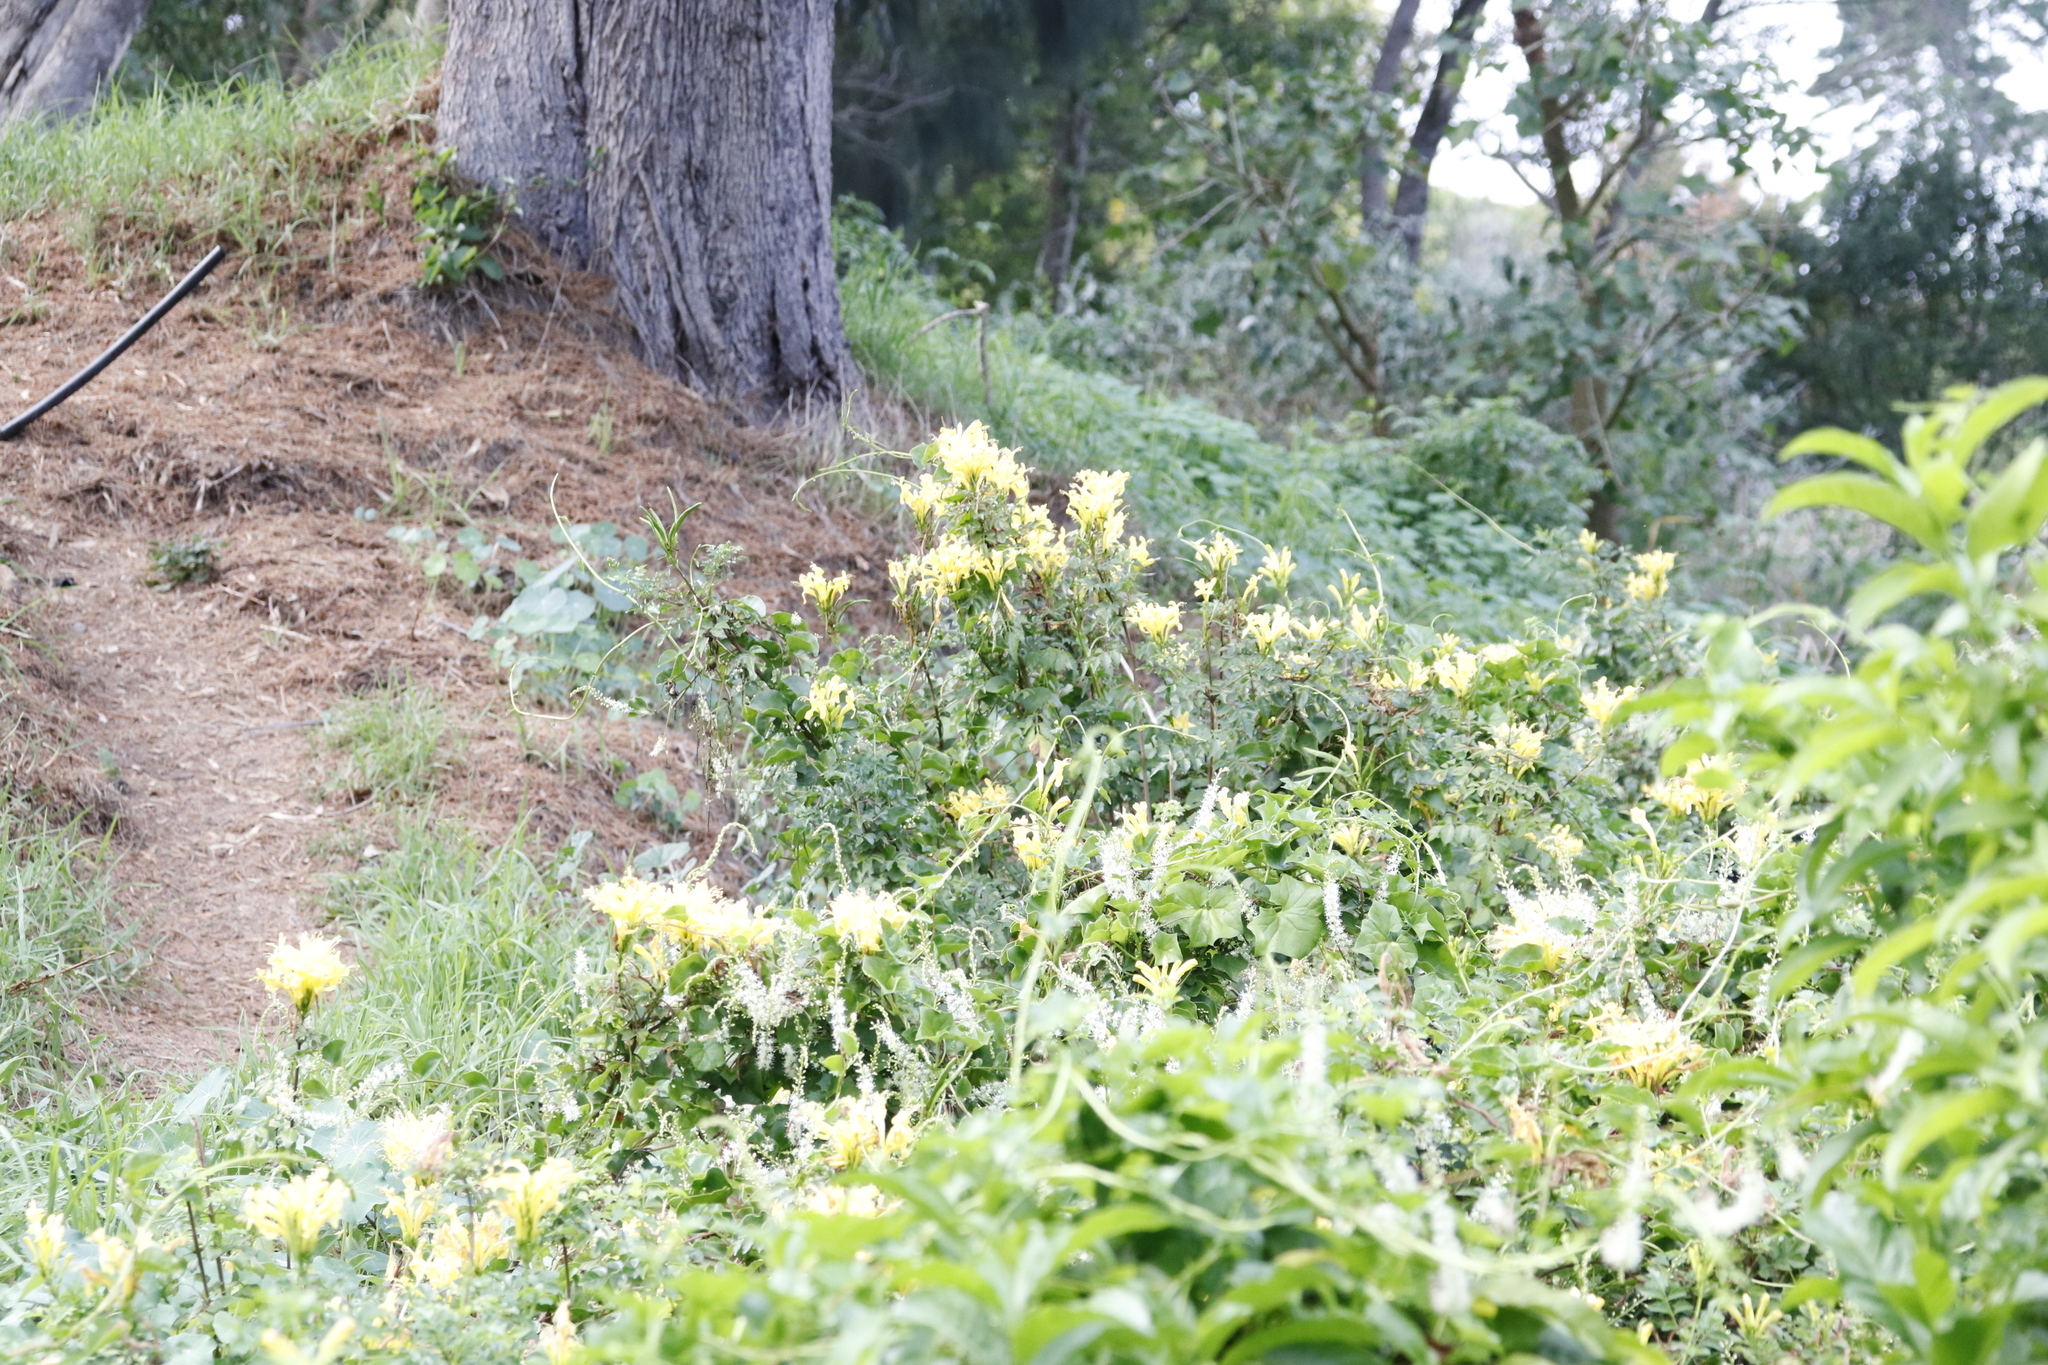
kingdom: Plantae
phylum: Tracheophyta
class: Magnoliopsida
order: Lamiales
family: Bignoniaceae
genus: Tecomaria
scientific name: Tecomaria capensis
